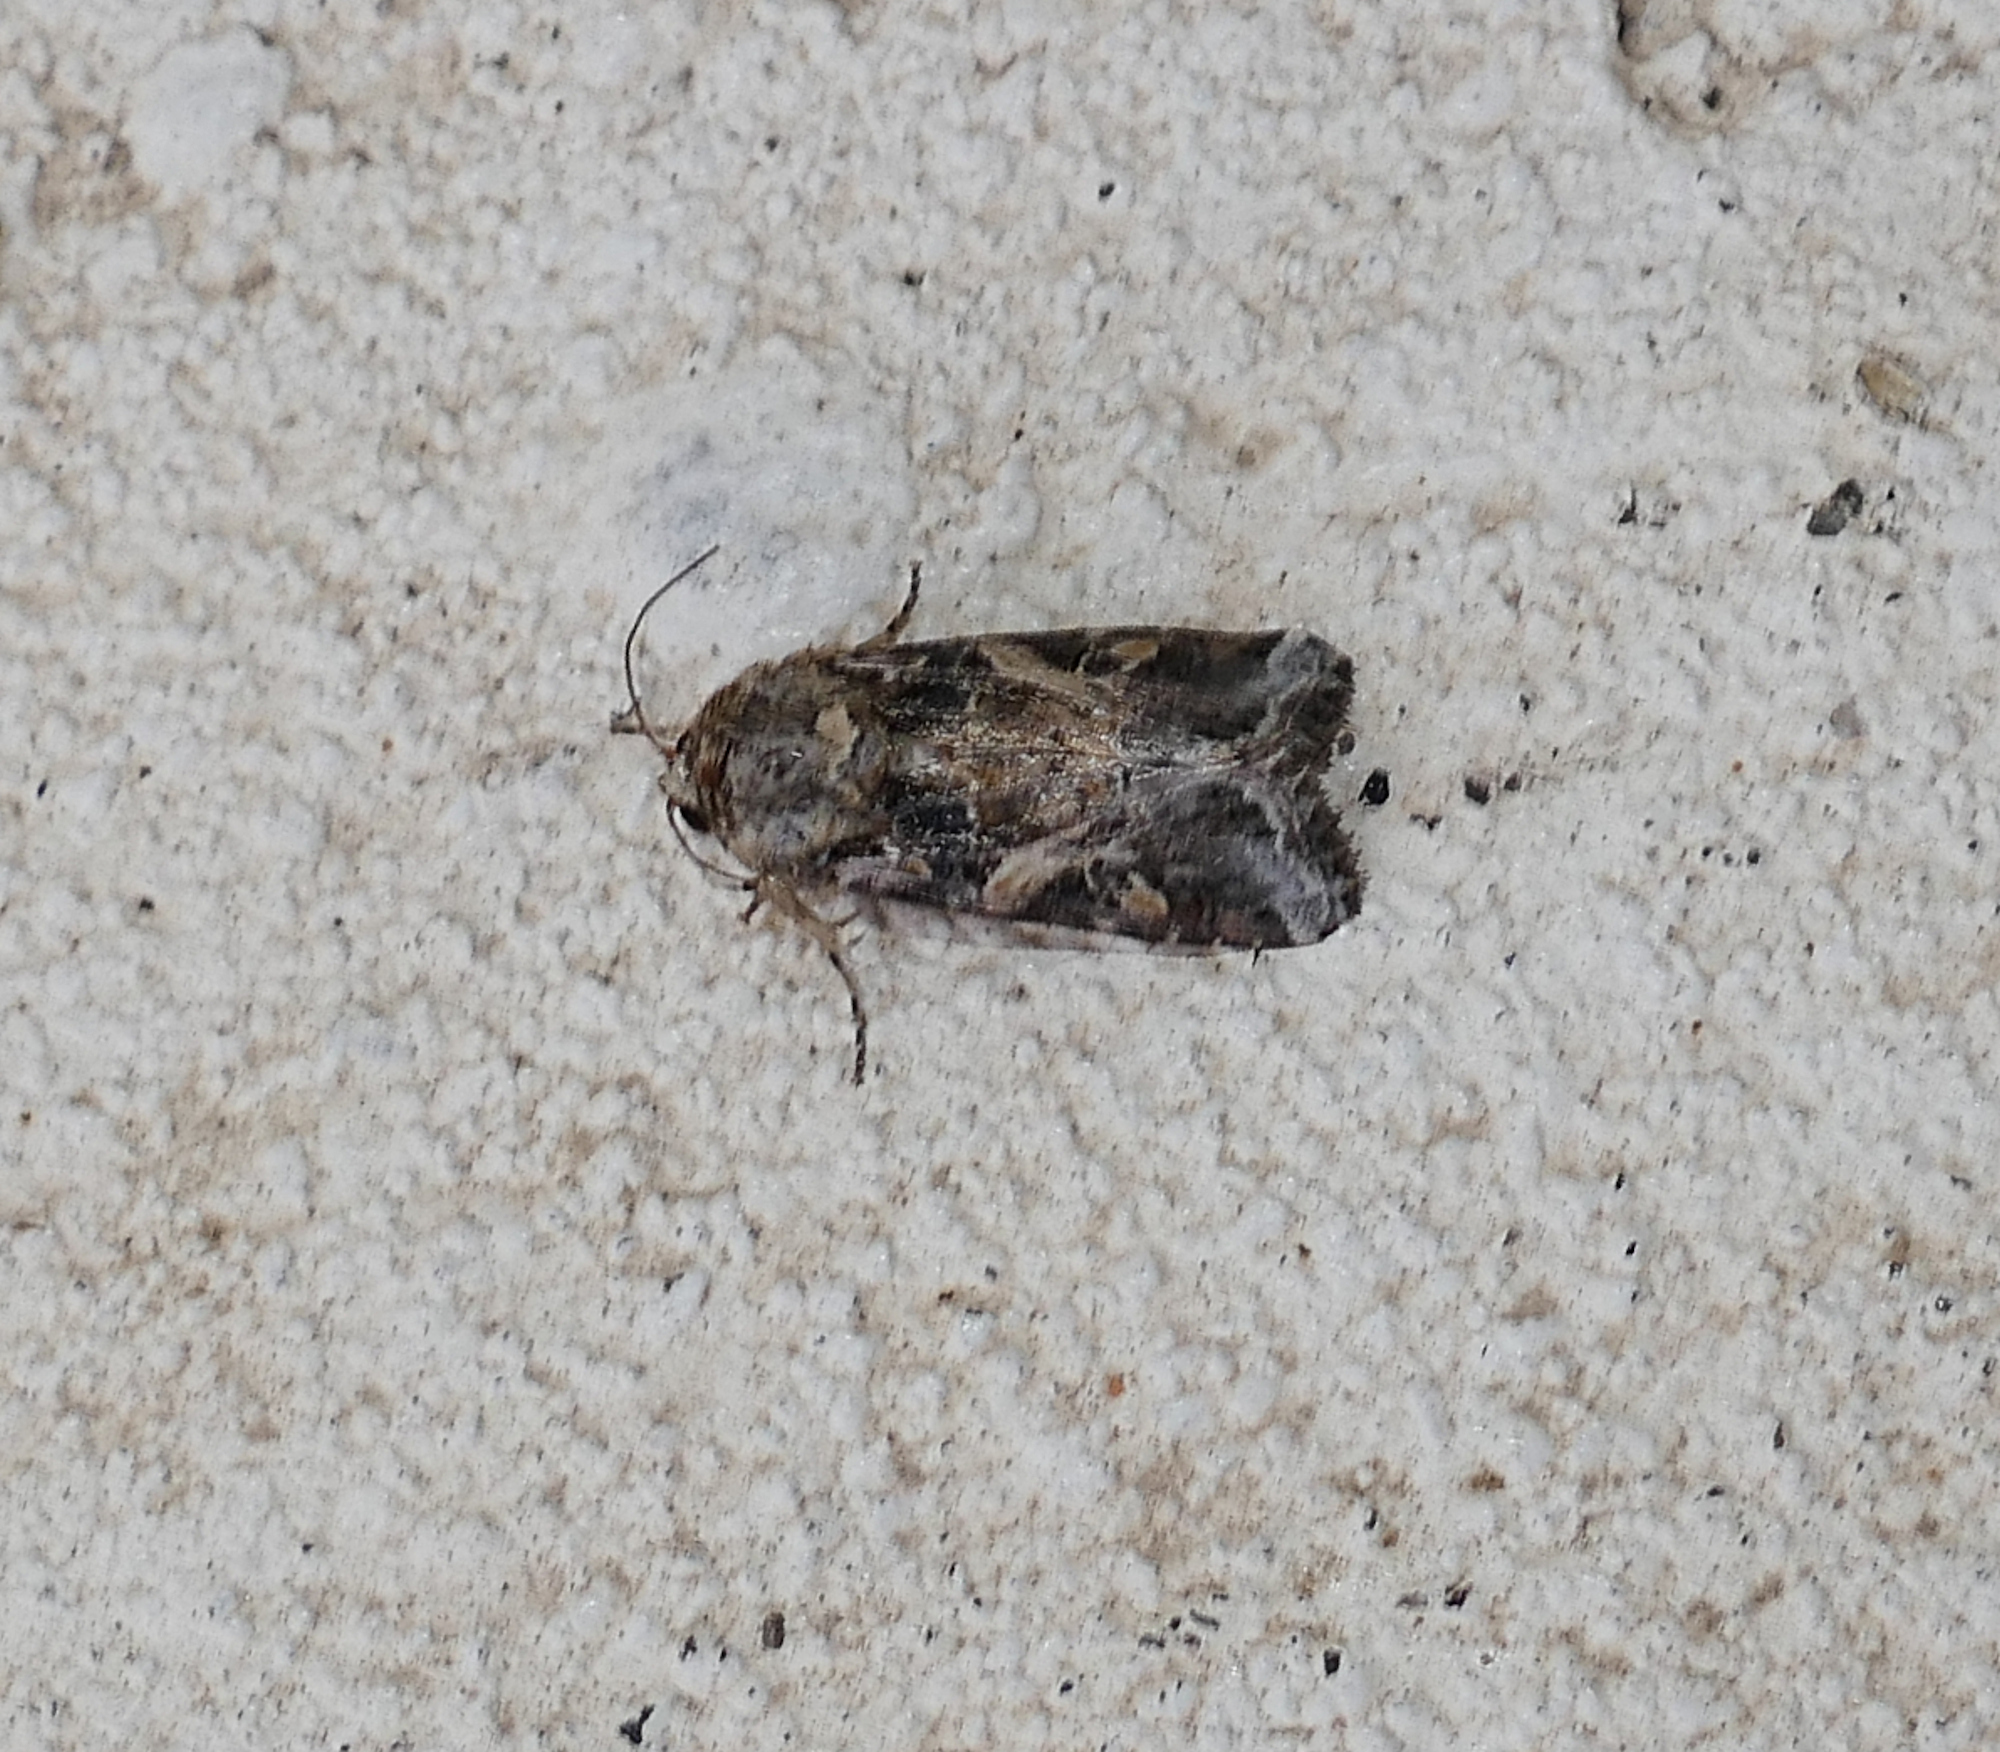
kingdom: Animalia
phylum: Arthropoda
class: Insecta
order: Lepidoptera
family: Noctuidae
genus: Spodoptera
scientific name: Spodoptera ornithogalli
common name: Yellow-striped armyworm
